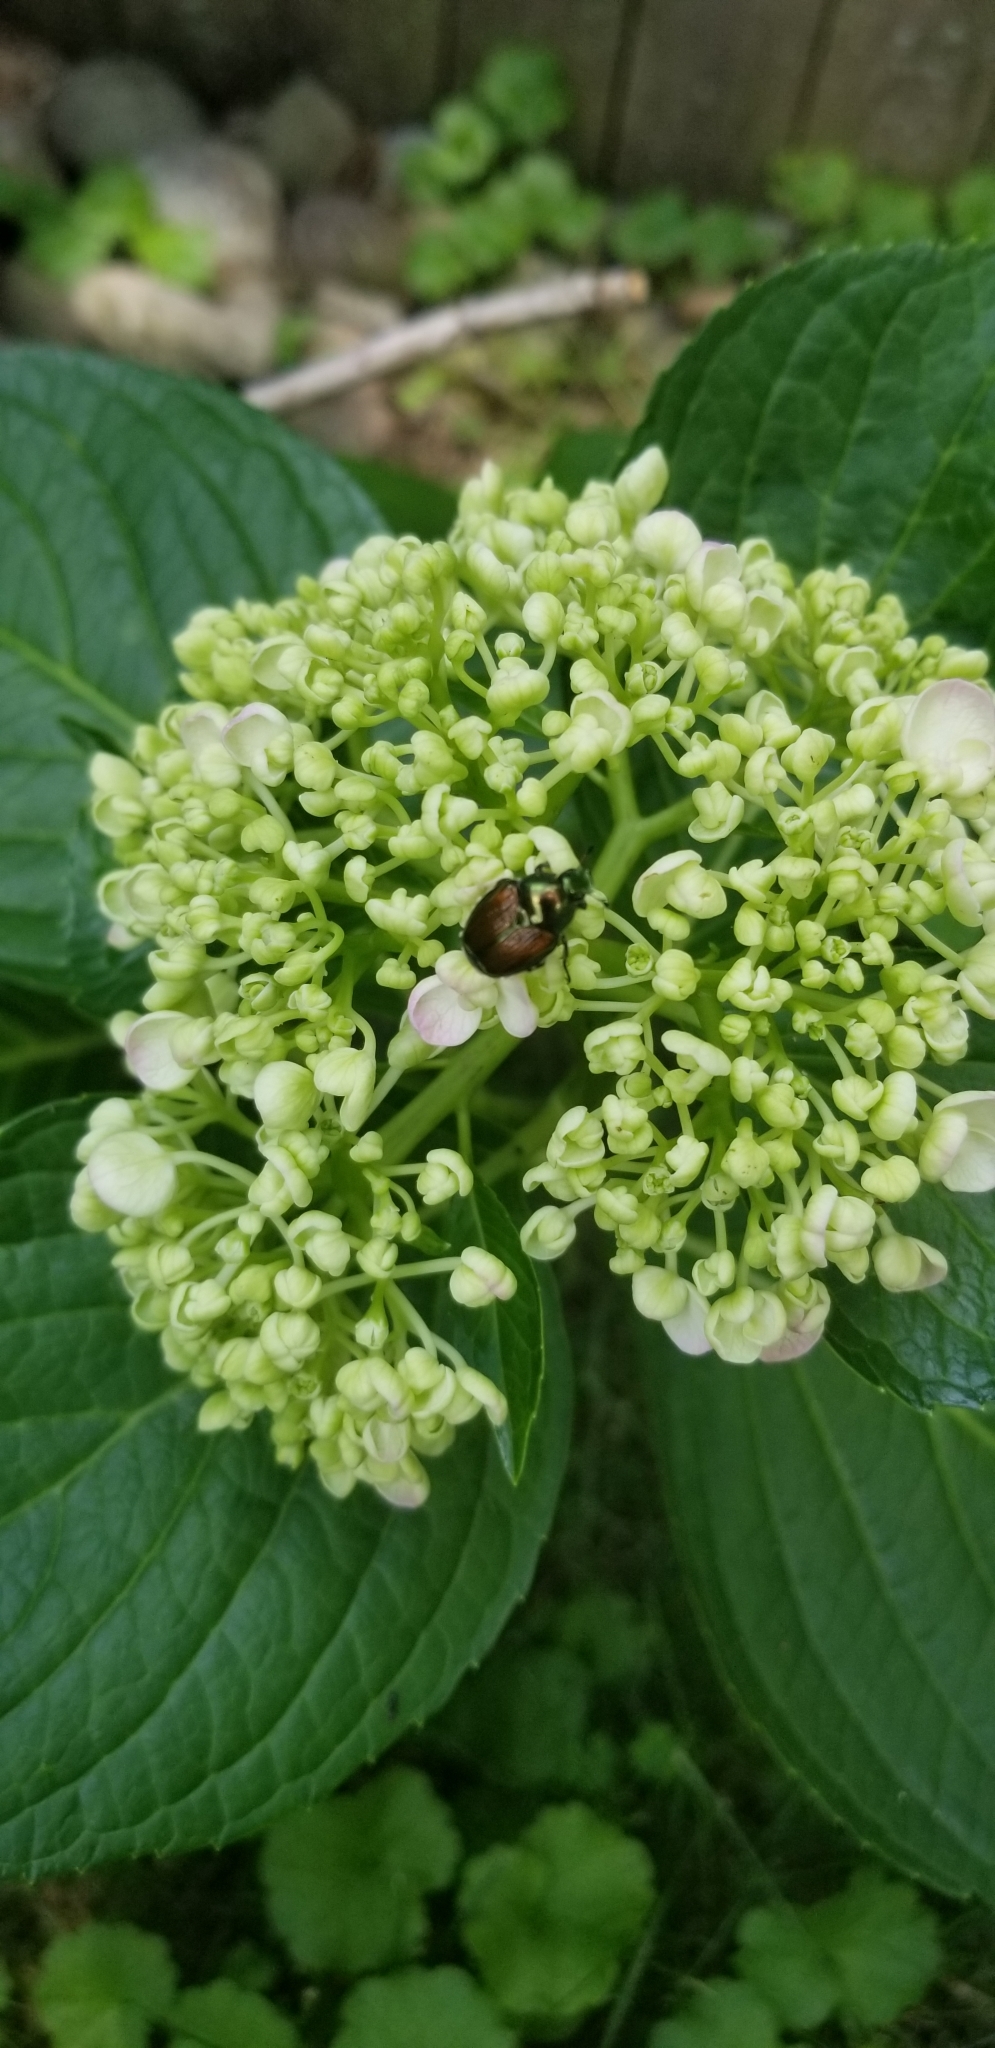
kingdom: Animalia
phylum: Arthropoda
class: Insecta
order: Coleoptera
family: Scarabaeidae
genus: Popillia
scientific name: Popillia japonica
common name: Japanese beetle
